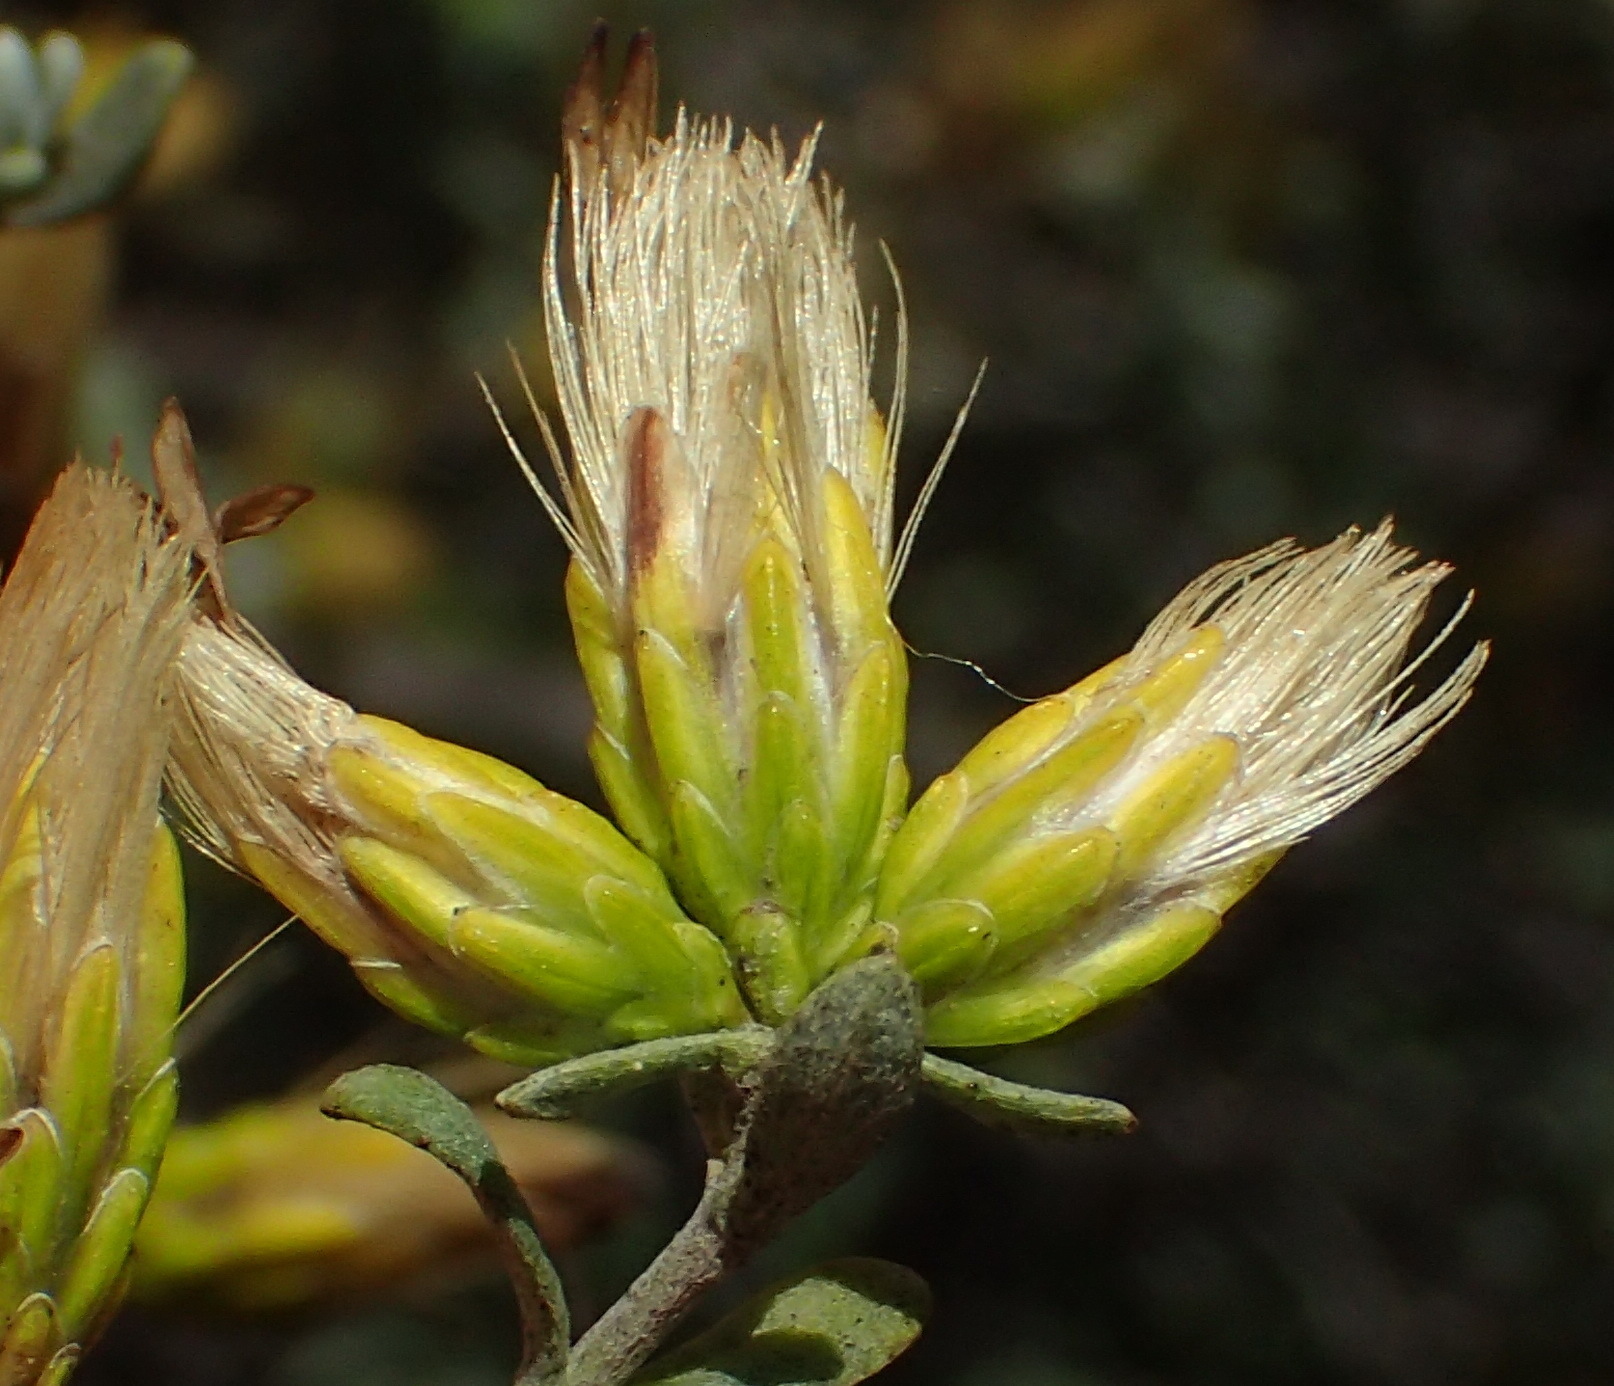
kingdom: Plantae
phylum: Tracheophyta
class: Magnoliopsida
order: Asterales
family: Asteraceae
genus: Pteronia
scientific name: Pteronia incana
